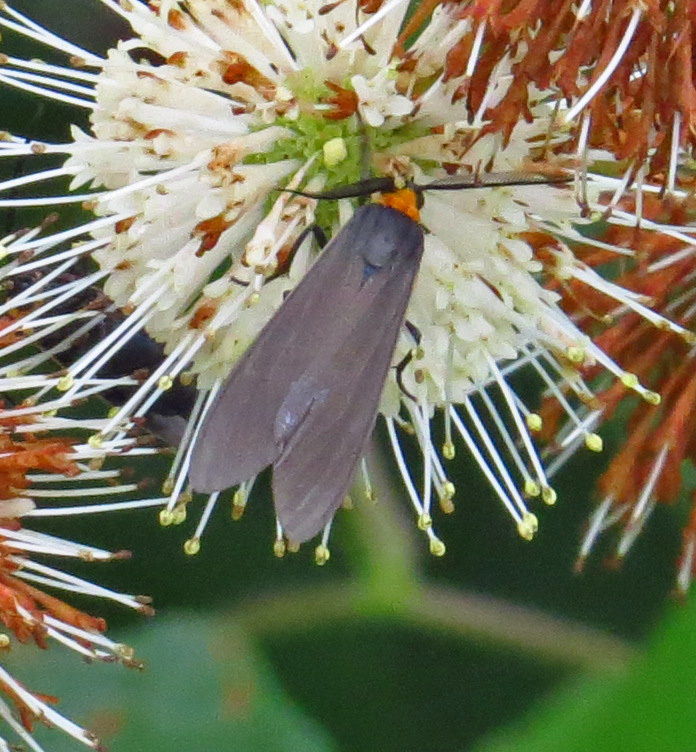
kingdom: Animalia
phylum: Arthropoda
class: Insecta
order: Lepidoptera
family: Erebidae
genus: Cisseps
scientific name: Cisseps fulvicollis
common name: Yellow-collared scape moth
